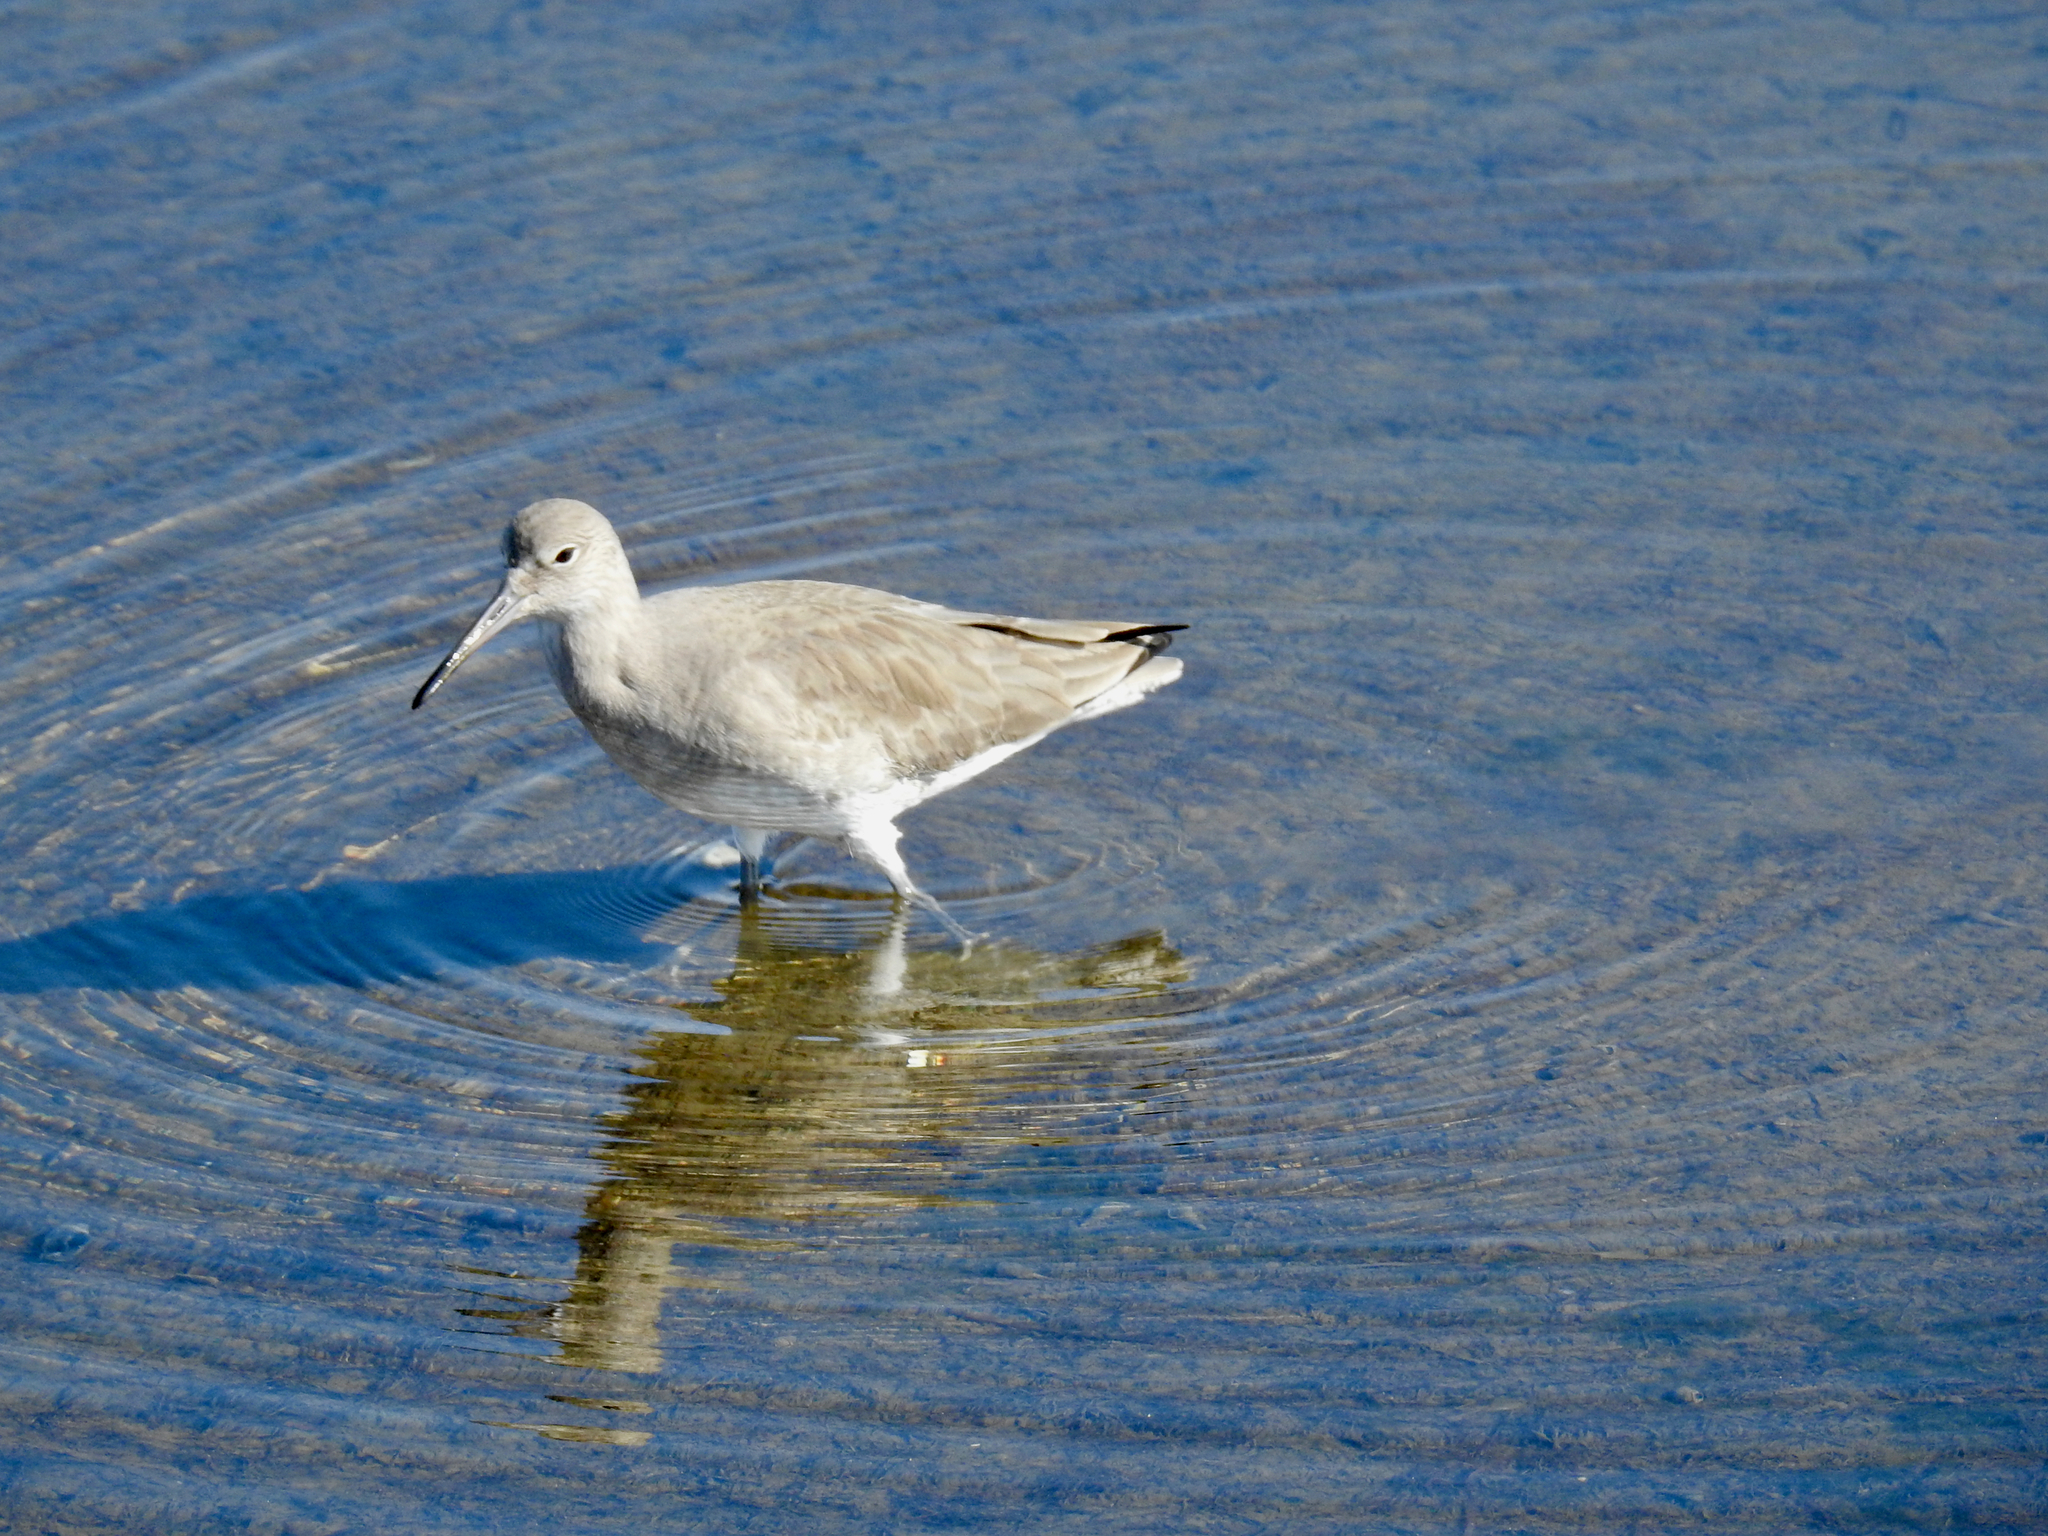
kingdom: Animalia
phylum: Chordata
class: Aves
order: Charadriiformes
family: Scolopacidae
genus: Tringa
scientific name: Tringa semipalmata
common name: Willet
